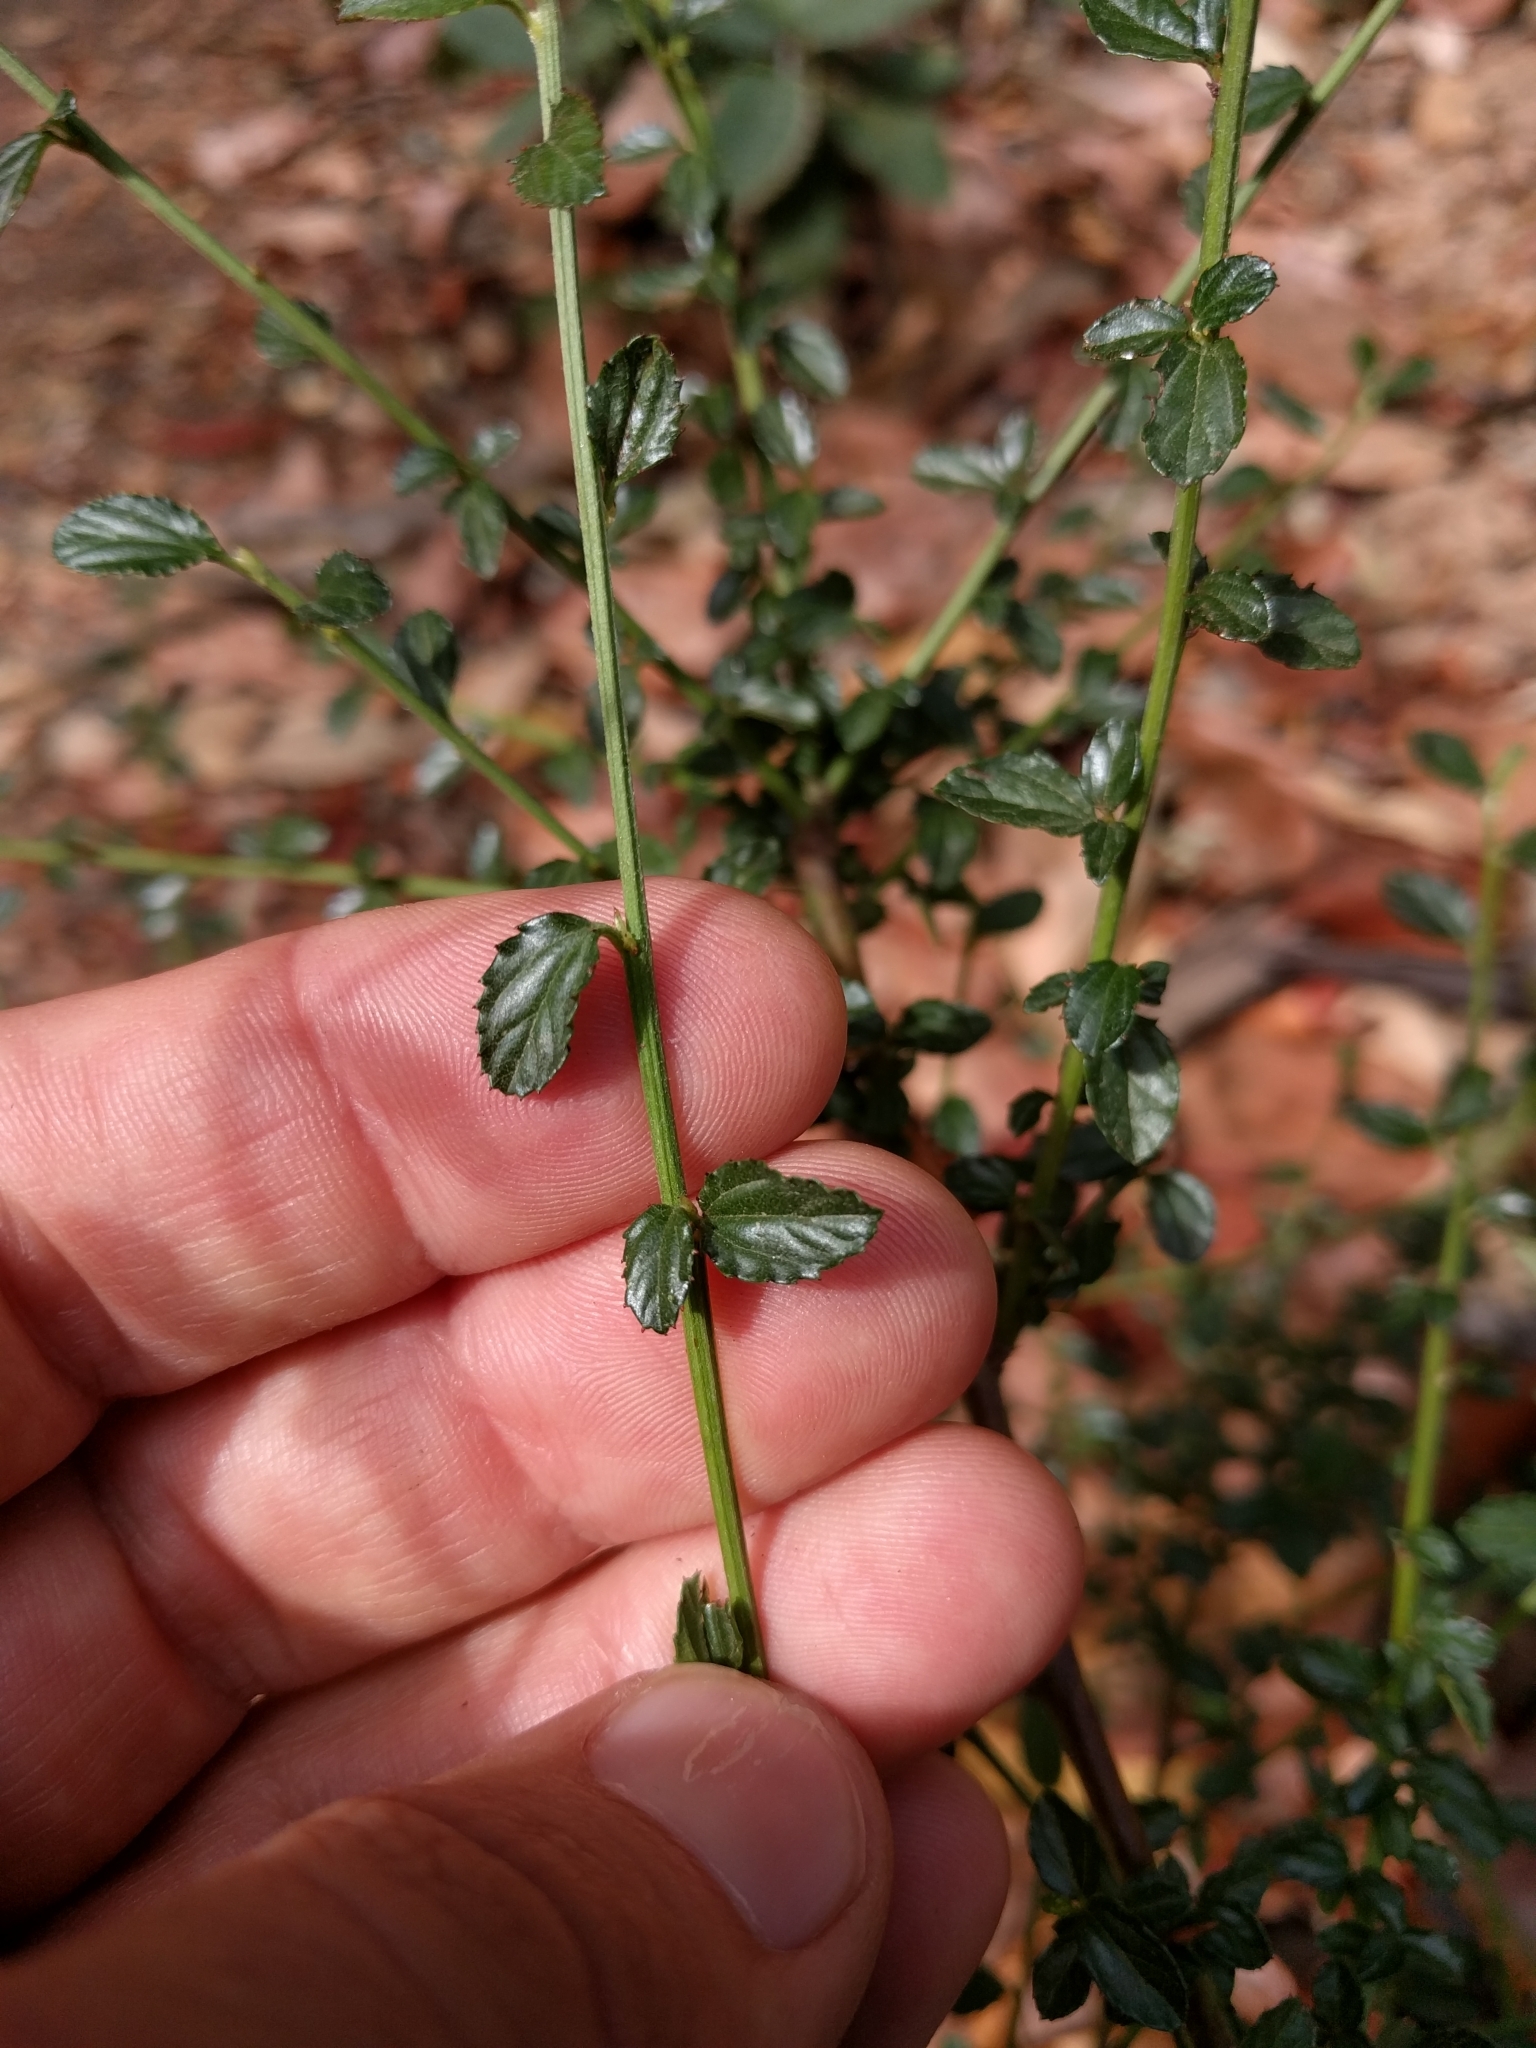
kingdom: Plantae
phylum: Tracheophyta
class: Magnoliopsida
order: Rosales
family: Rhamnaceae
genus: Ceanothus
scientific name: Ceanothus thyrsiflorus
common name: California-lilac
